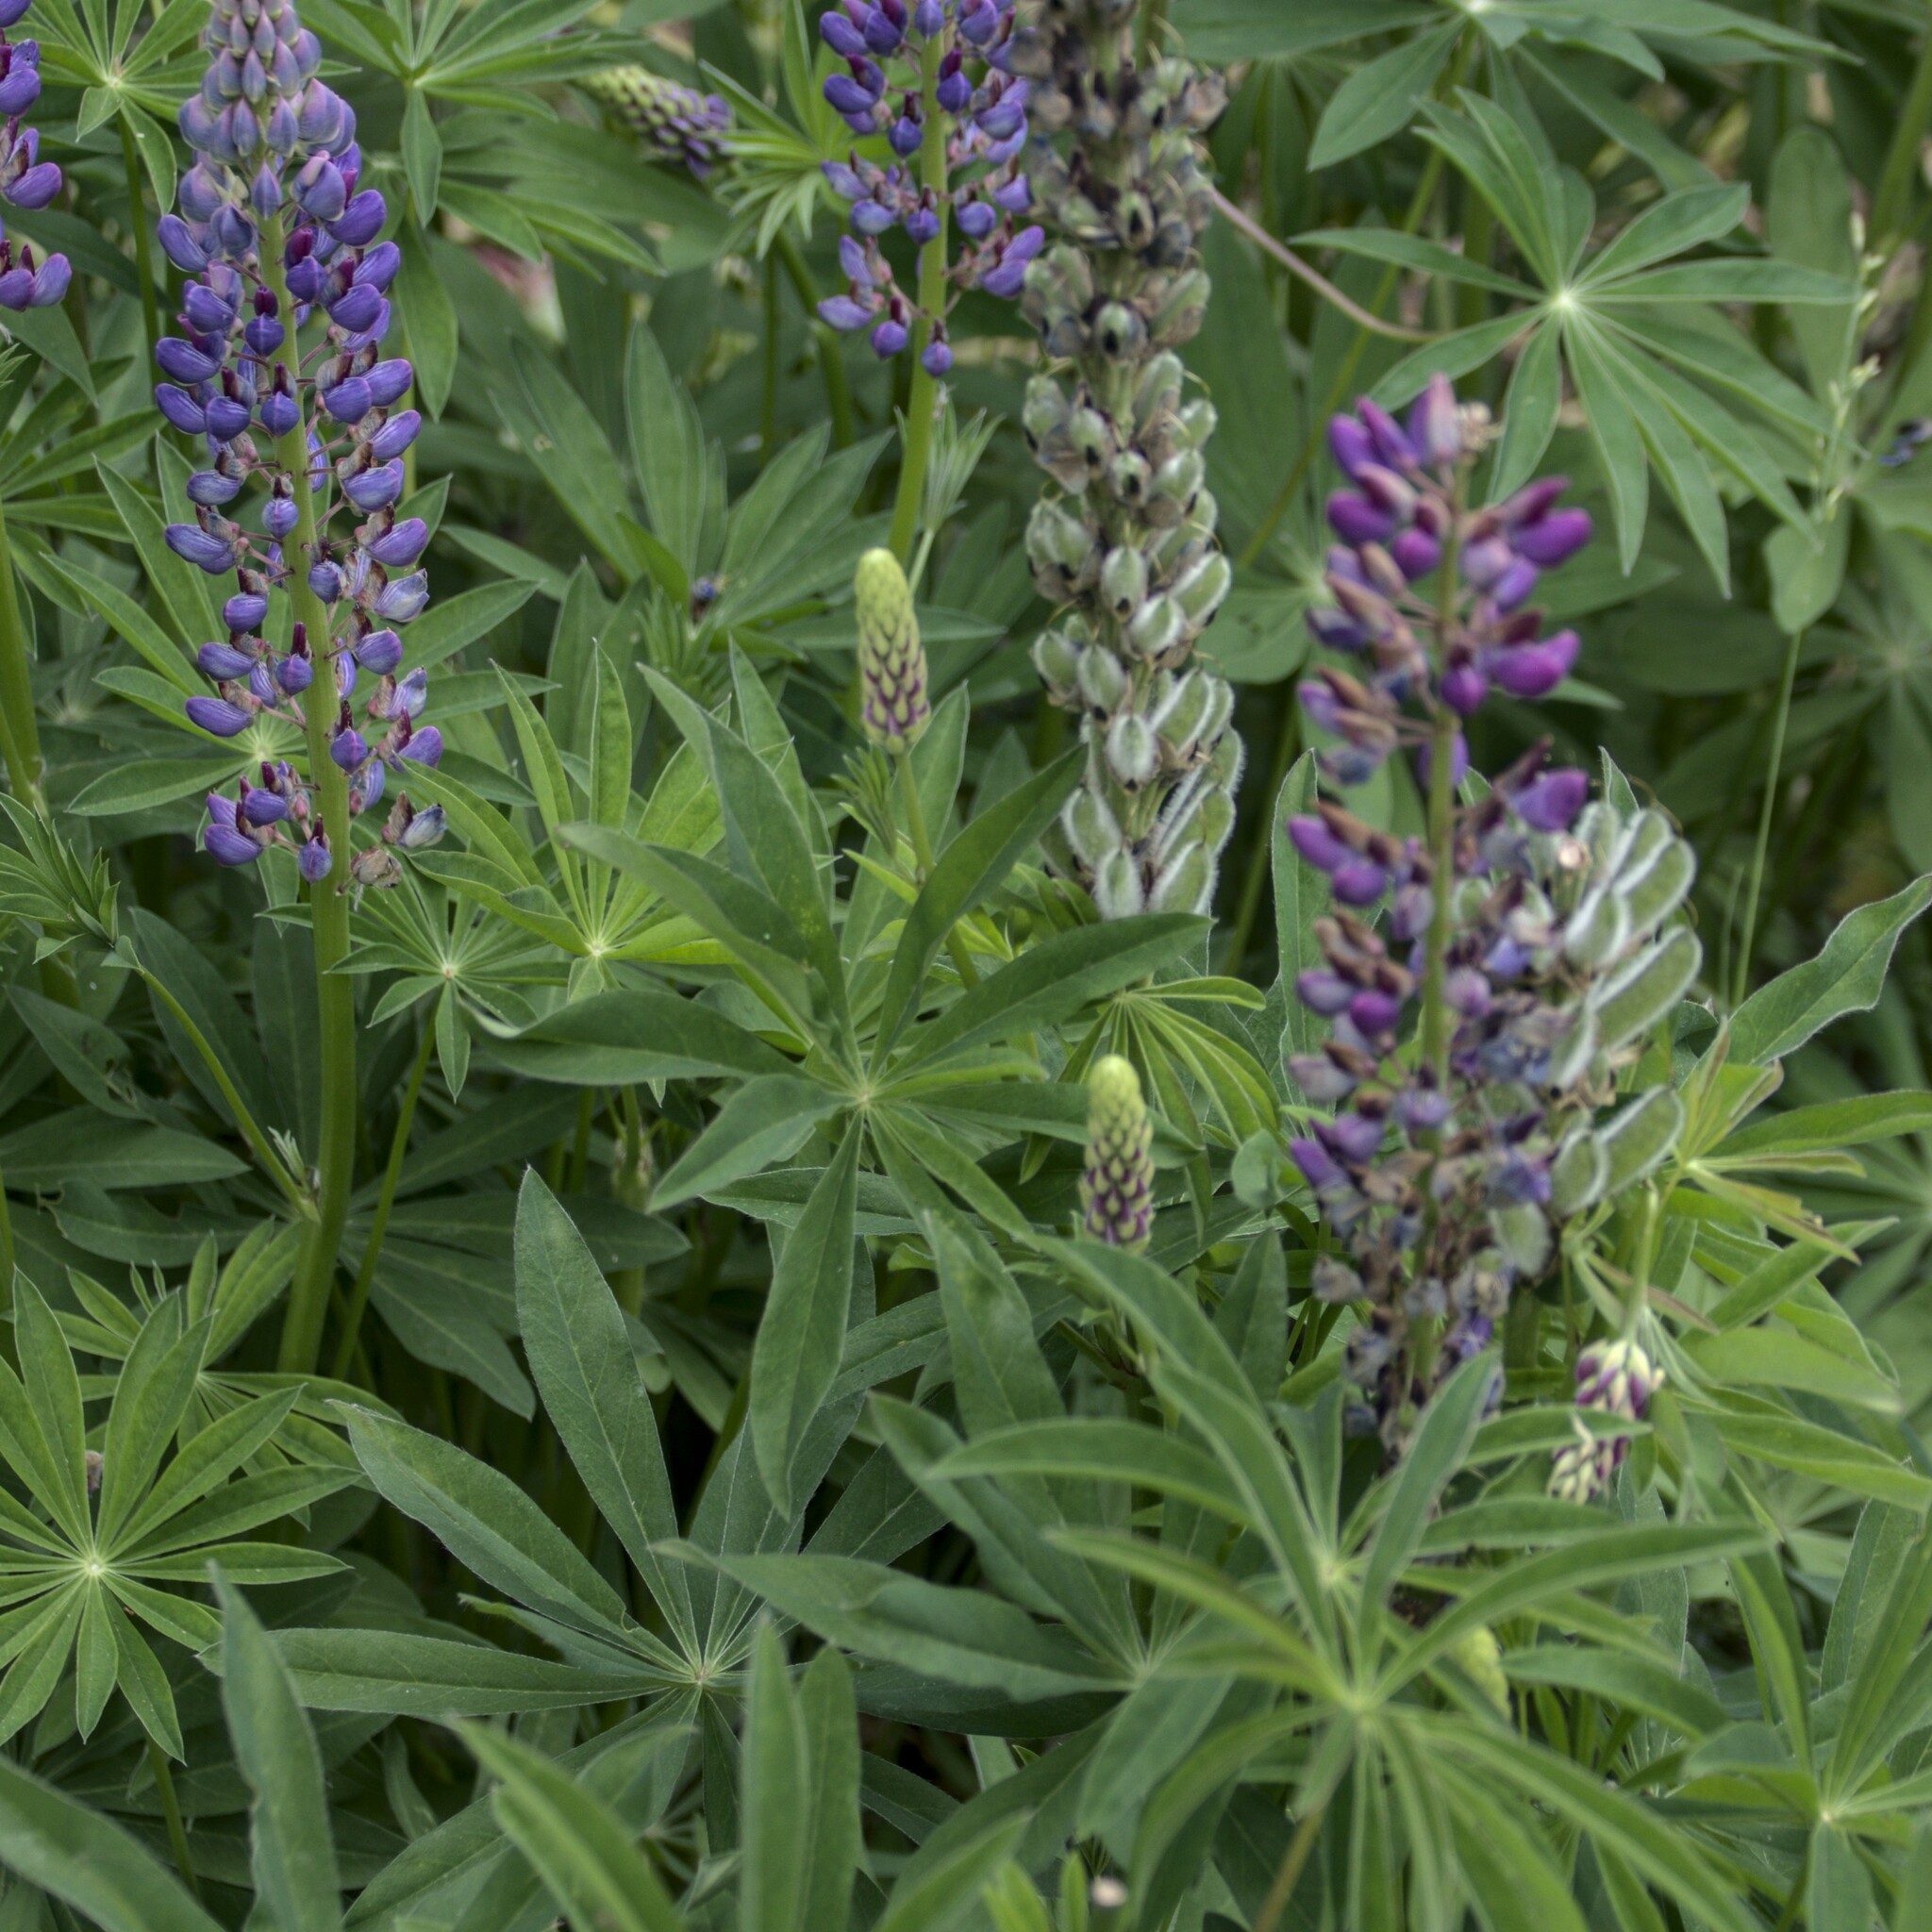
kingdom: Plantae
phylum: Tracheophyta
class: Magnoliopsida
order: Fabales
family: Fabaceae
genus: Lupinus
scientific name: Lupinus polyphyllus
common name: Garden lupin
